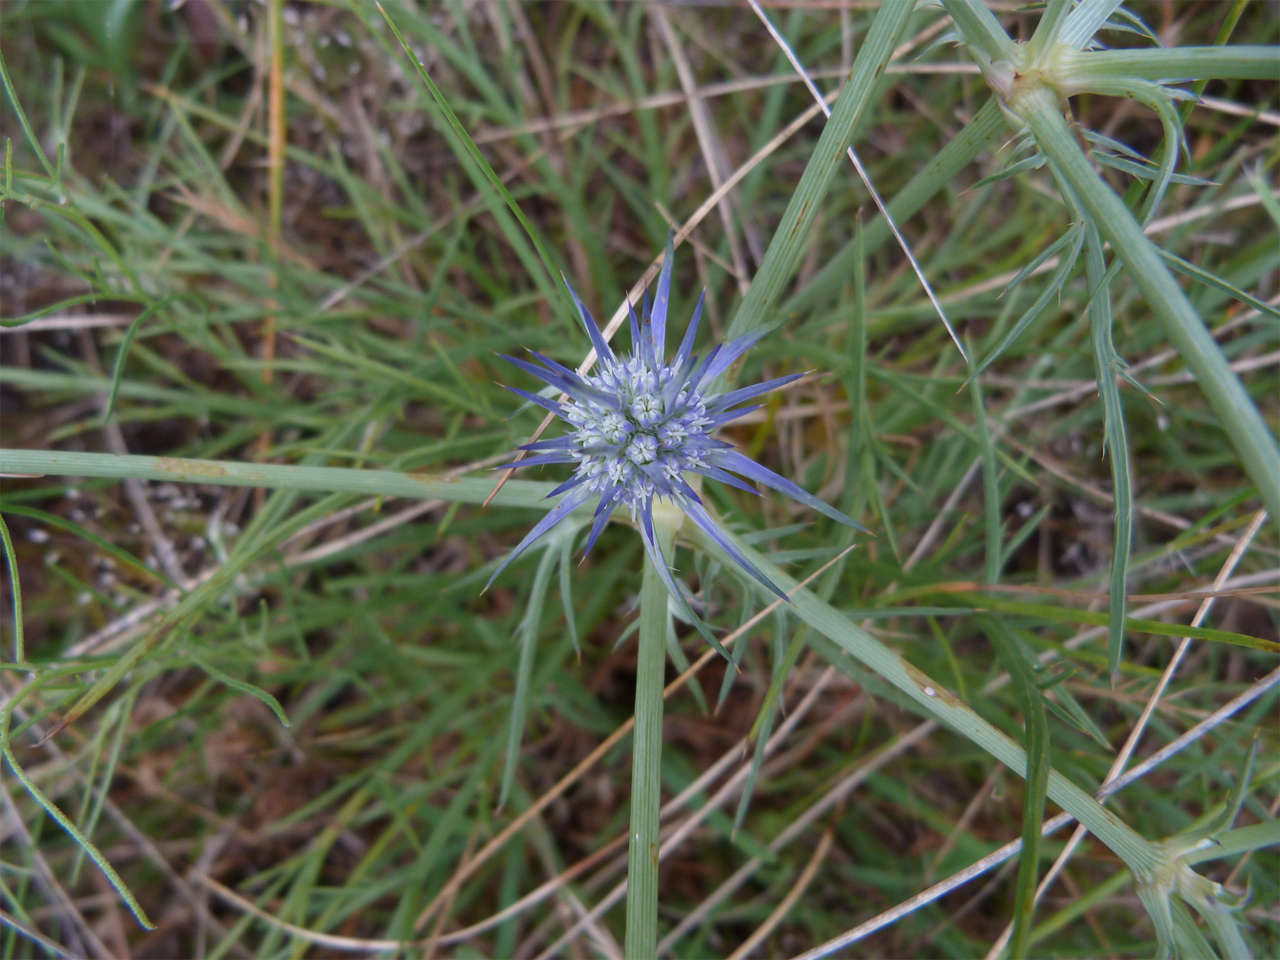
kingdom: Plantae
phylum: Tracheophyta
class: Magnoliopsida
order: Apiales
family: Apiaceae
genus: Eryngium
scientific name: Eryngium ovinum
